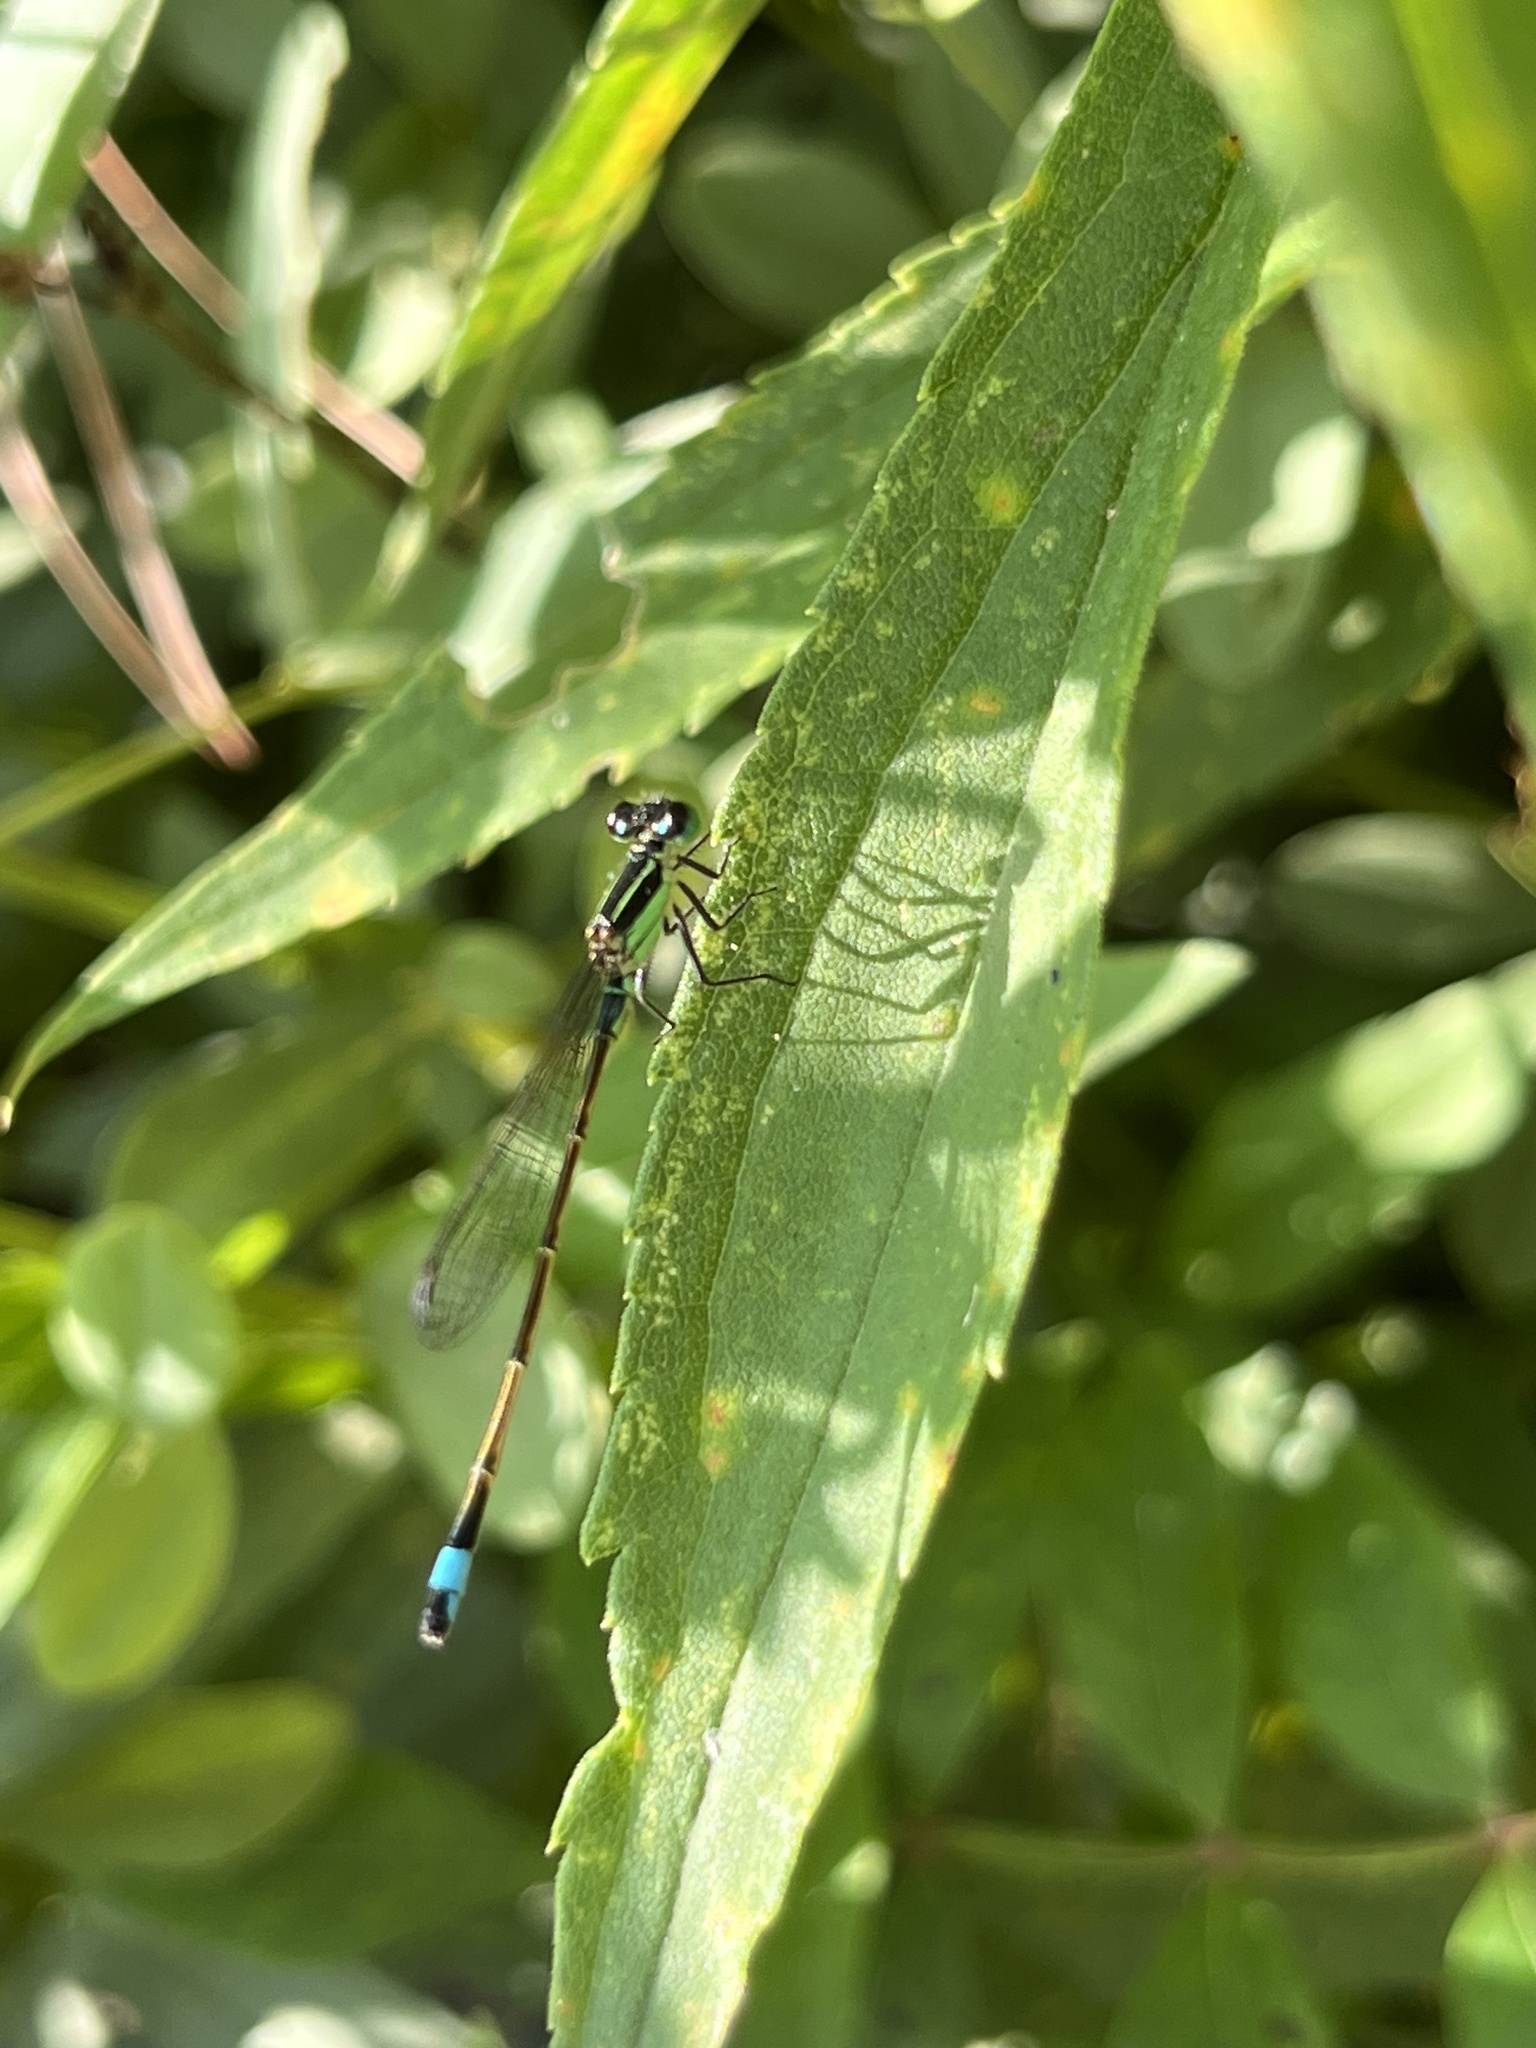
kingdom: Animalia
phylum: Arthropoda
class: Insecta
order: Odonata
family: Coenagrionidae
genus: Ischnura
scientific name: Ischnura ramburii
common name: Rambur's forktail
